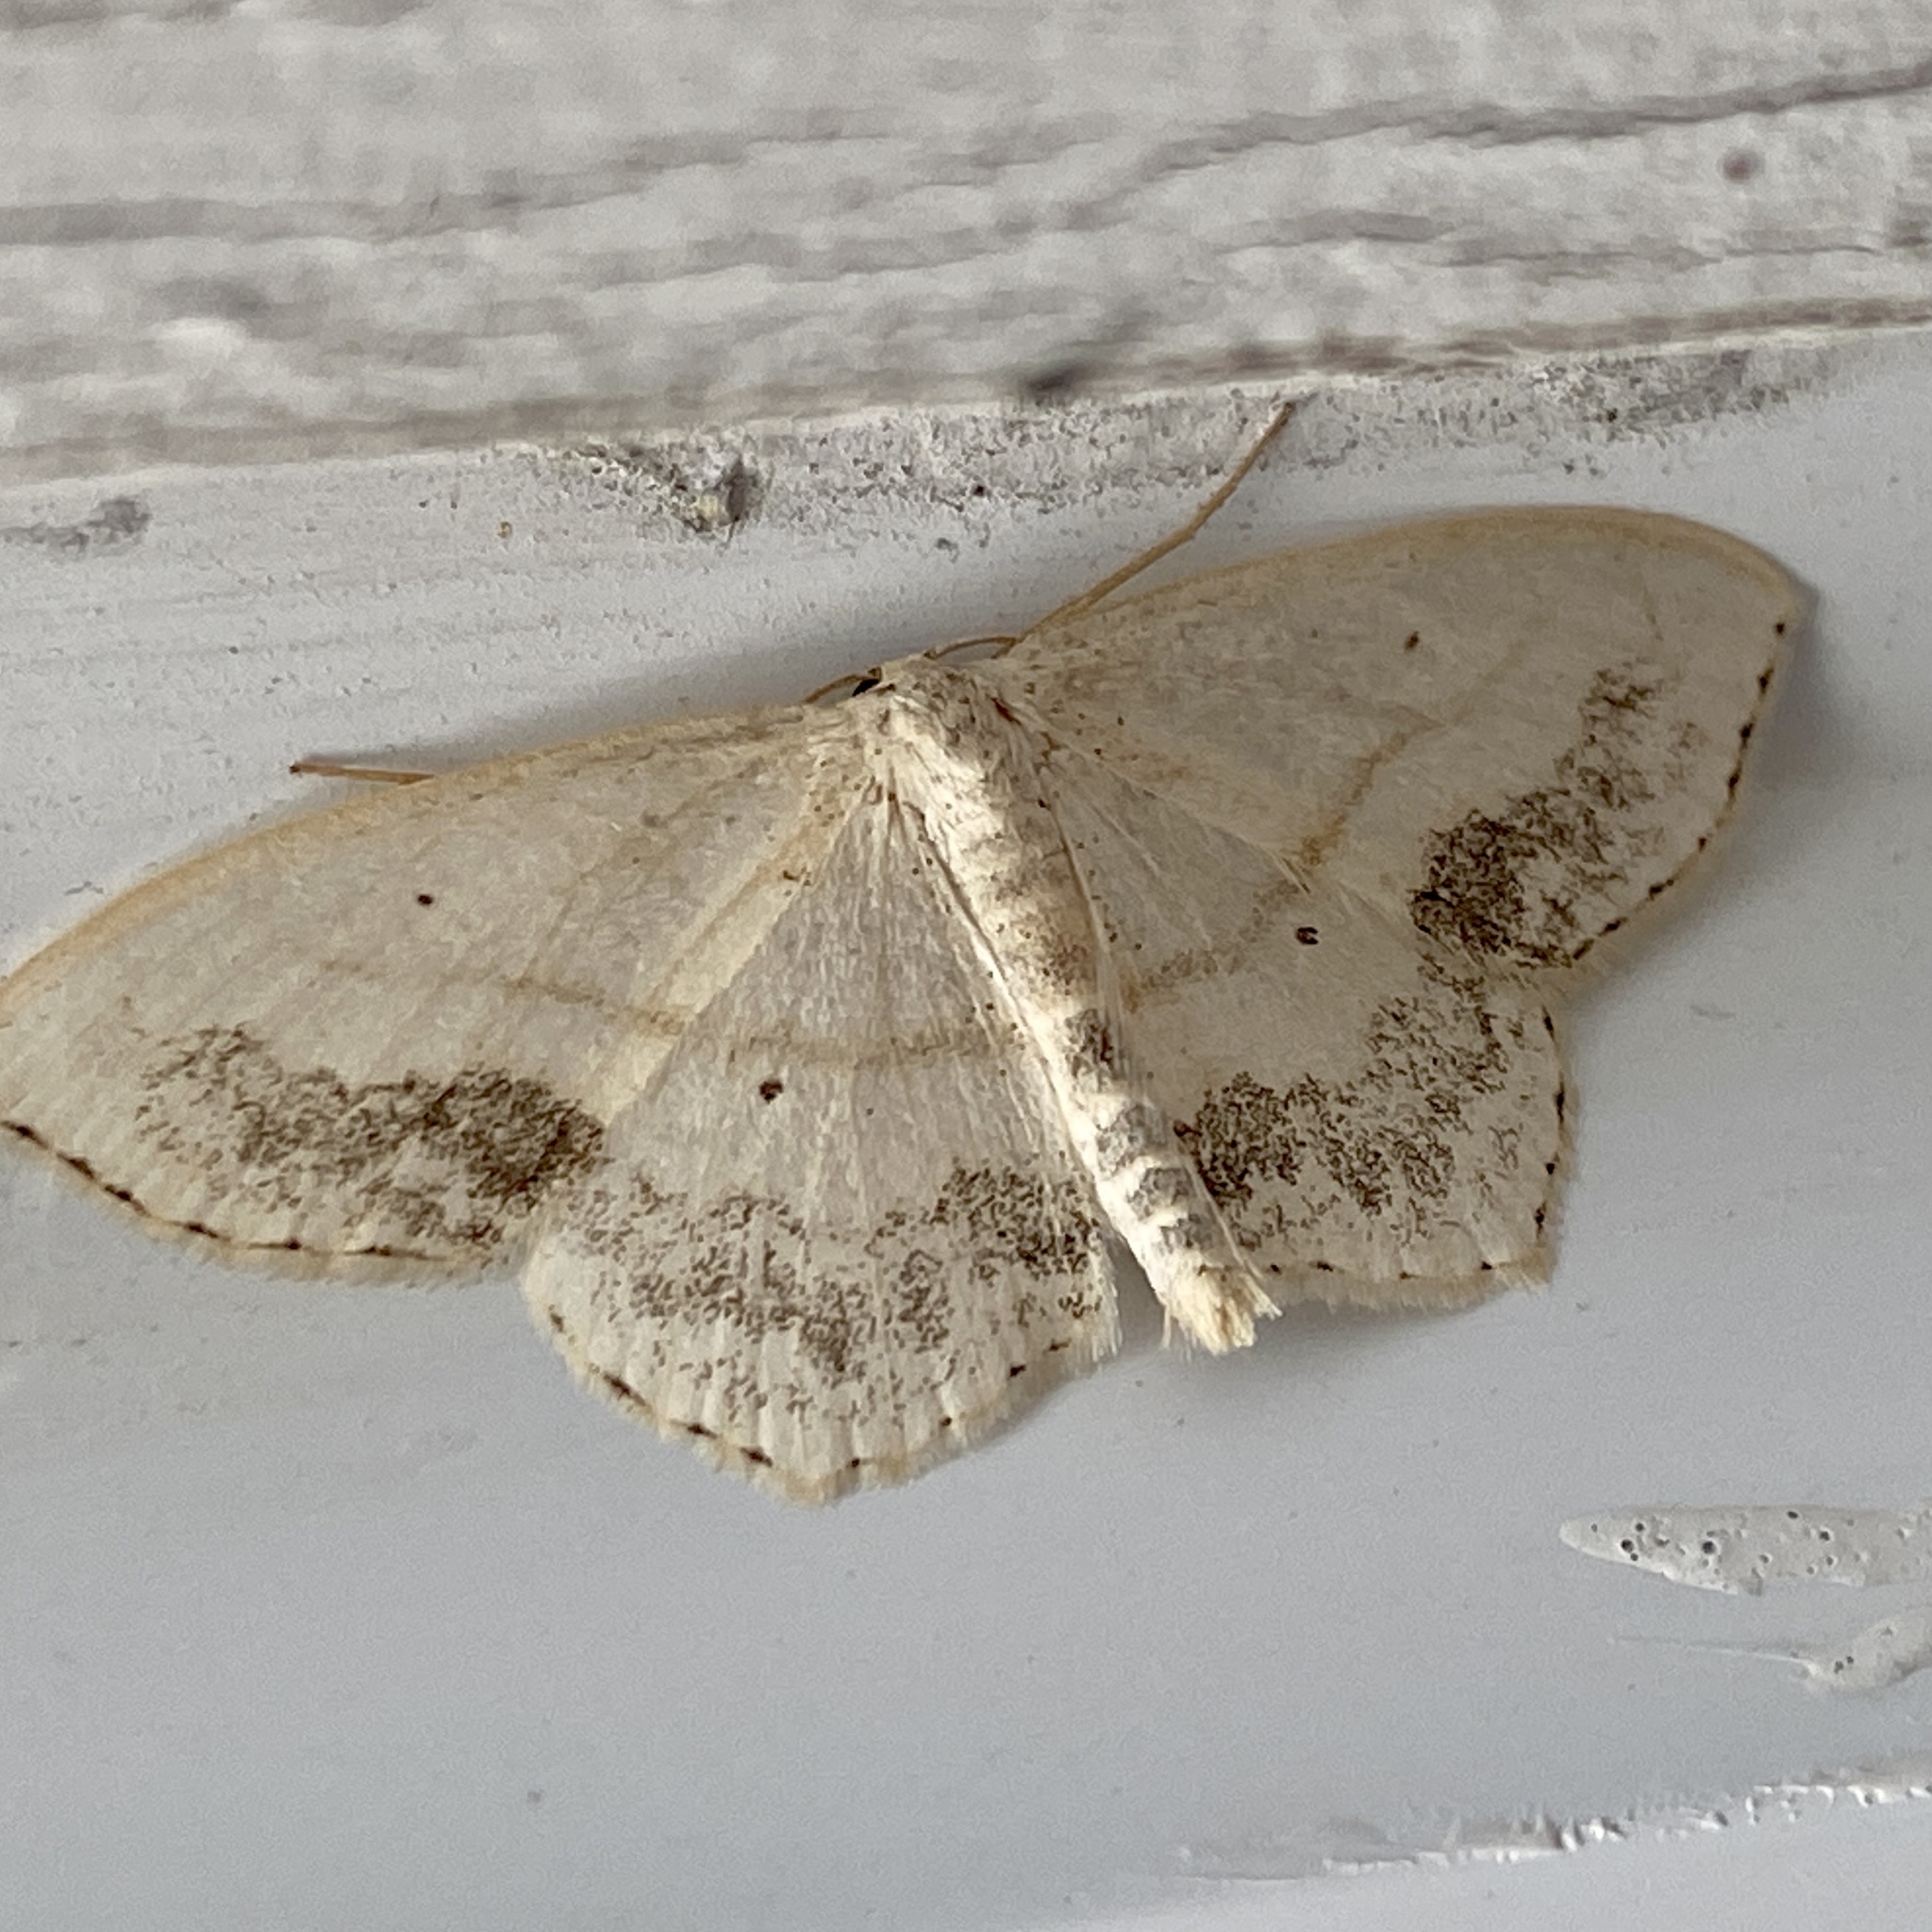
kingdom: Animalia
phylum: Arthropoda
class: Insecta
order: Lepidoptera
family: Geometridae
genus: Scopula
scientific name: Scopula limboundata
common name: Large lace border
